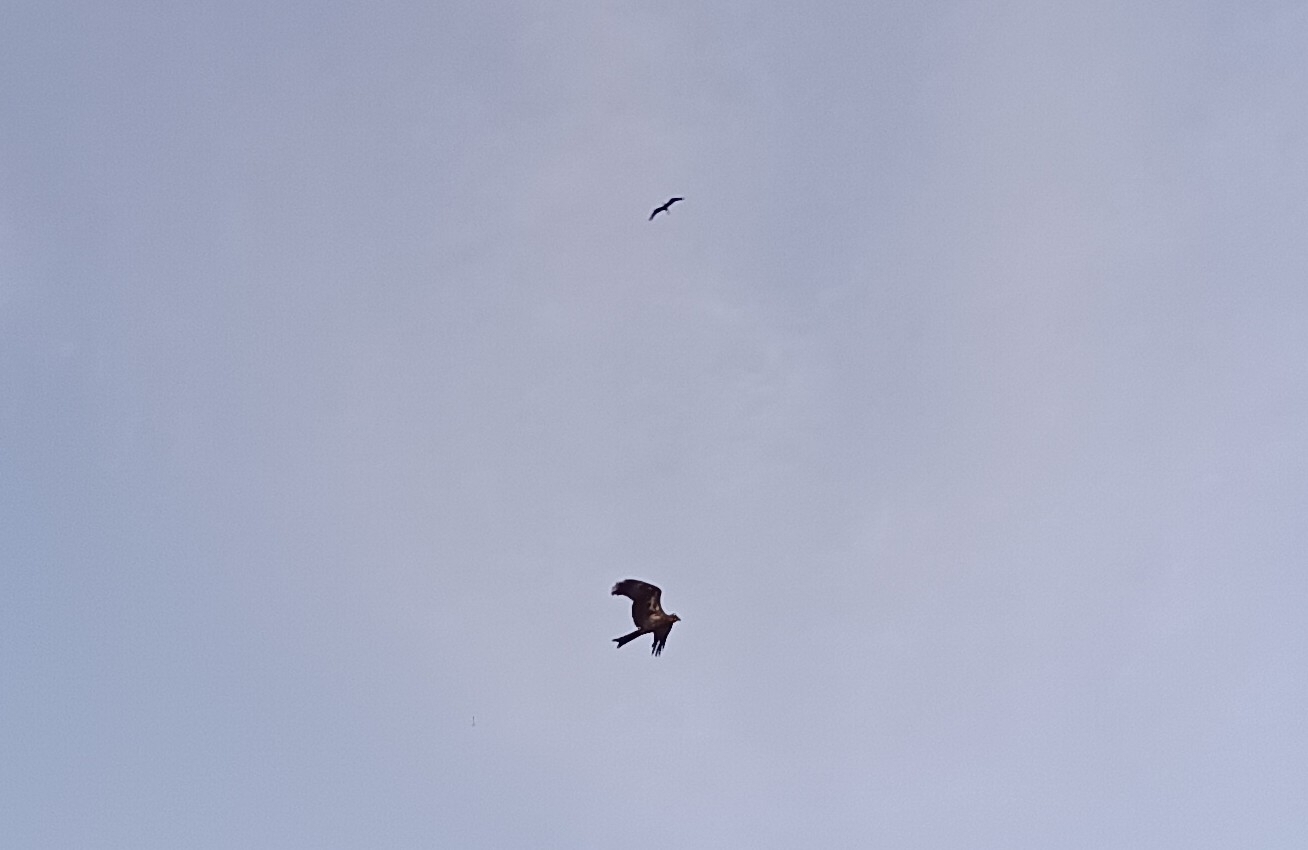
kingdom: Animalia
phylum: Chordata
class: Aves
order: Accipitriformes
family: Accipitridae
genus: Milvus
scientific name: Milvus migrans
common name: Black kite
